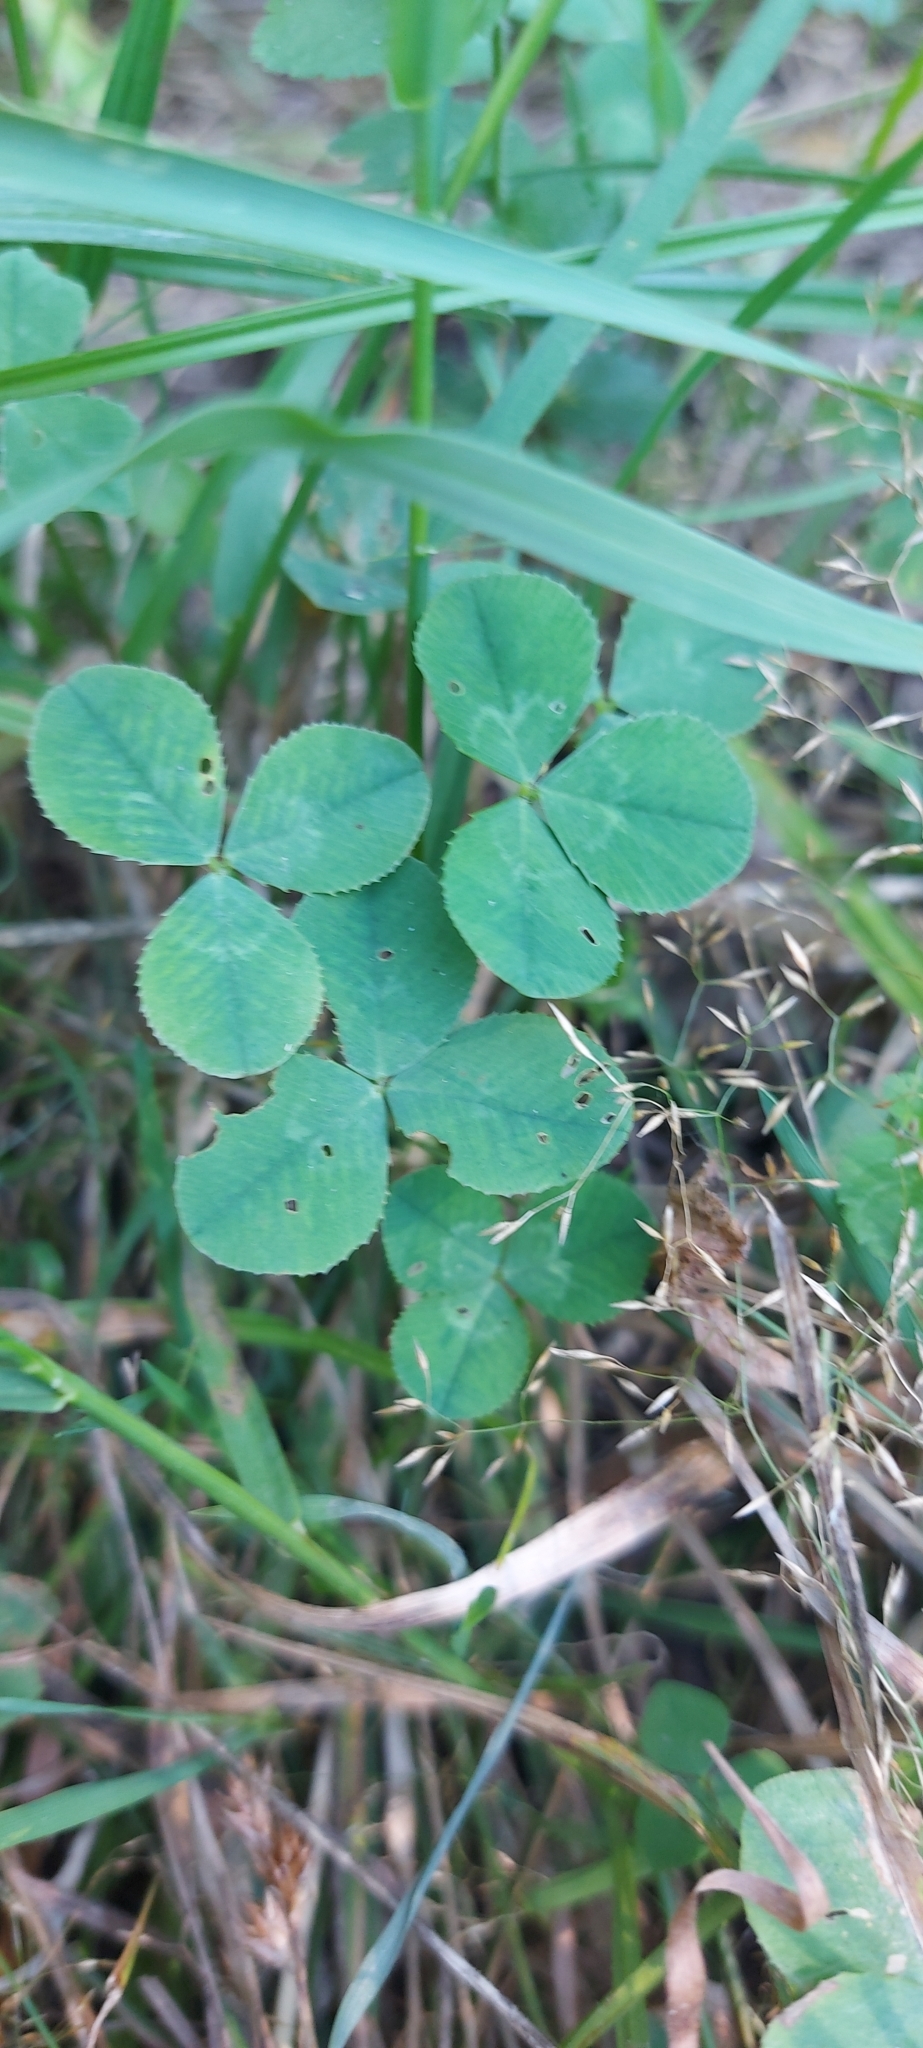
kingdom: Plantae
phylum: Tracheophyta
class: Magnoliopsida
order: Fabales
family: Fabaceae
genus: Trifolium
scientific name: Trifolium repens
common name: White clover
